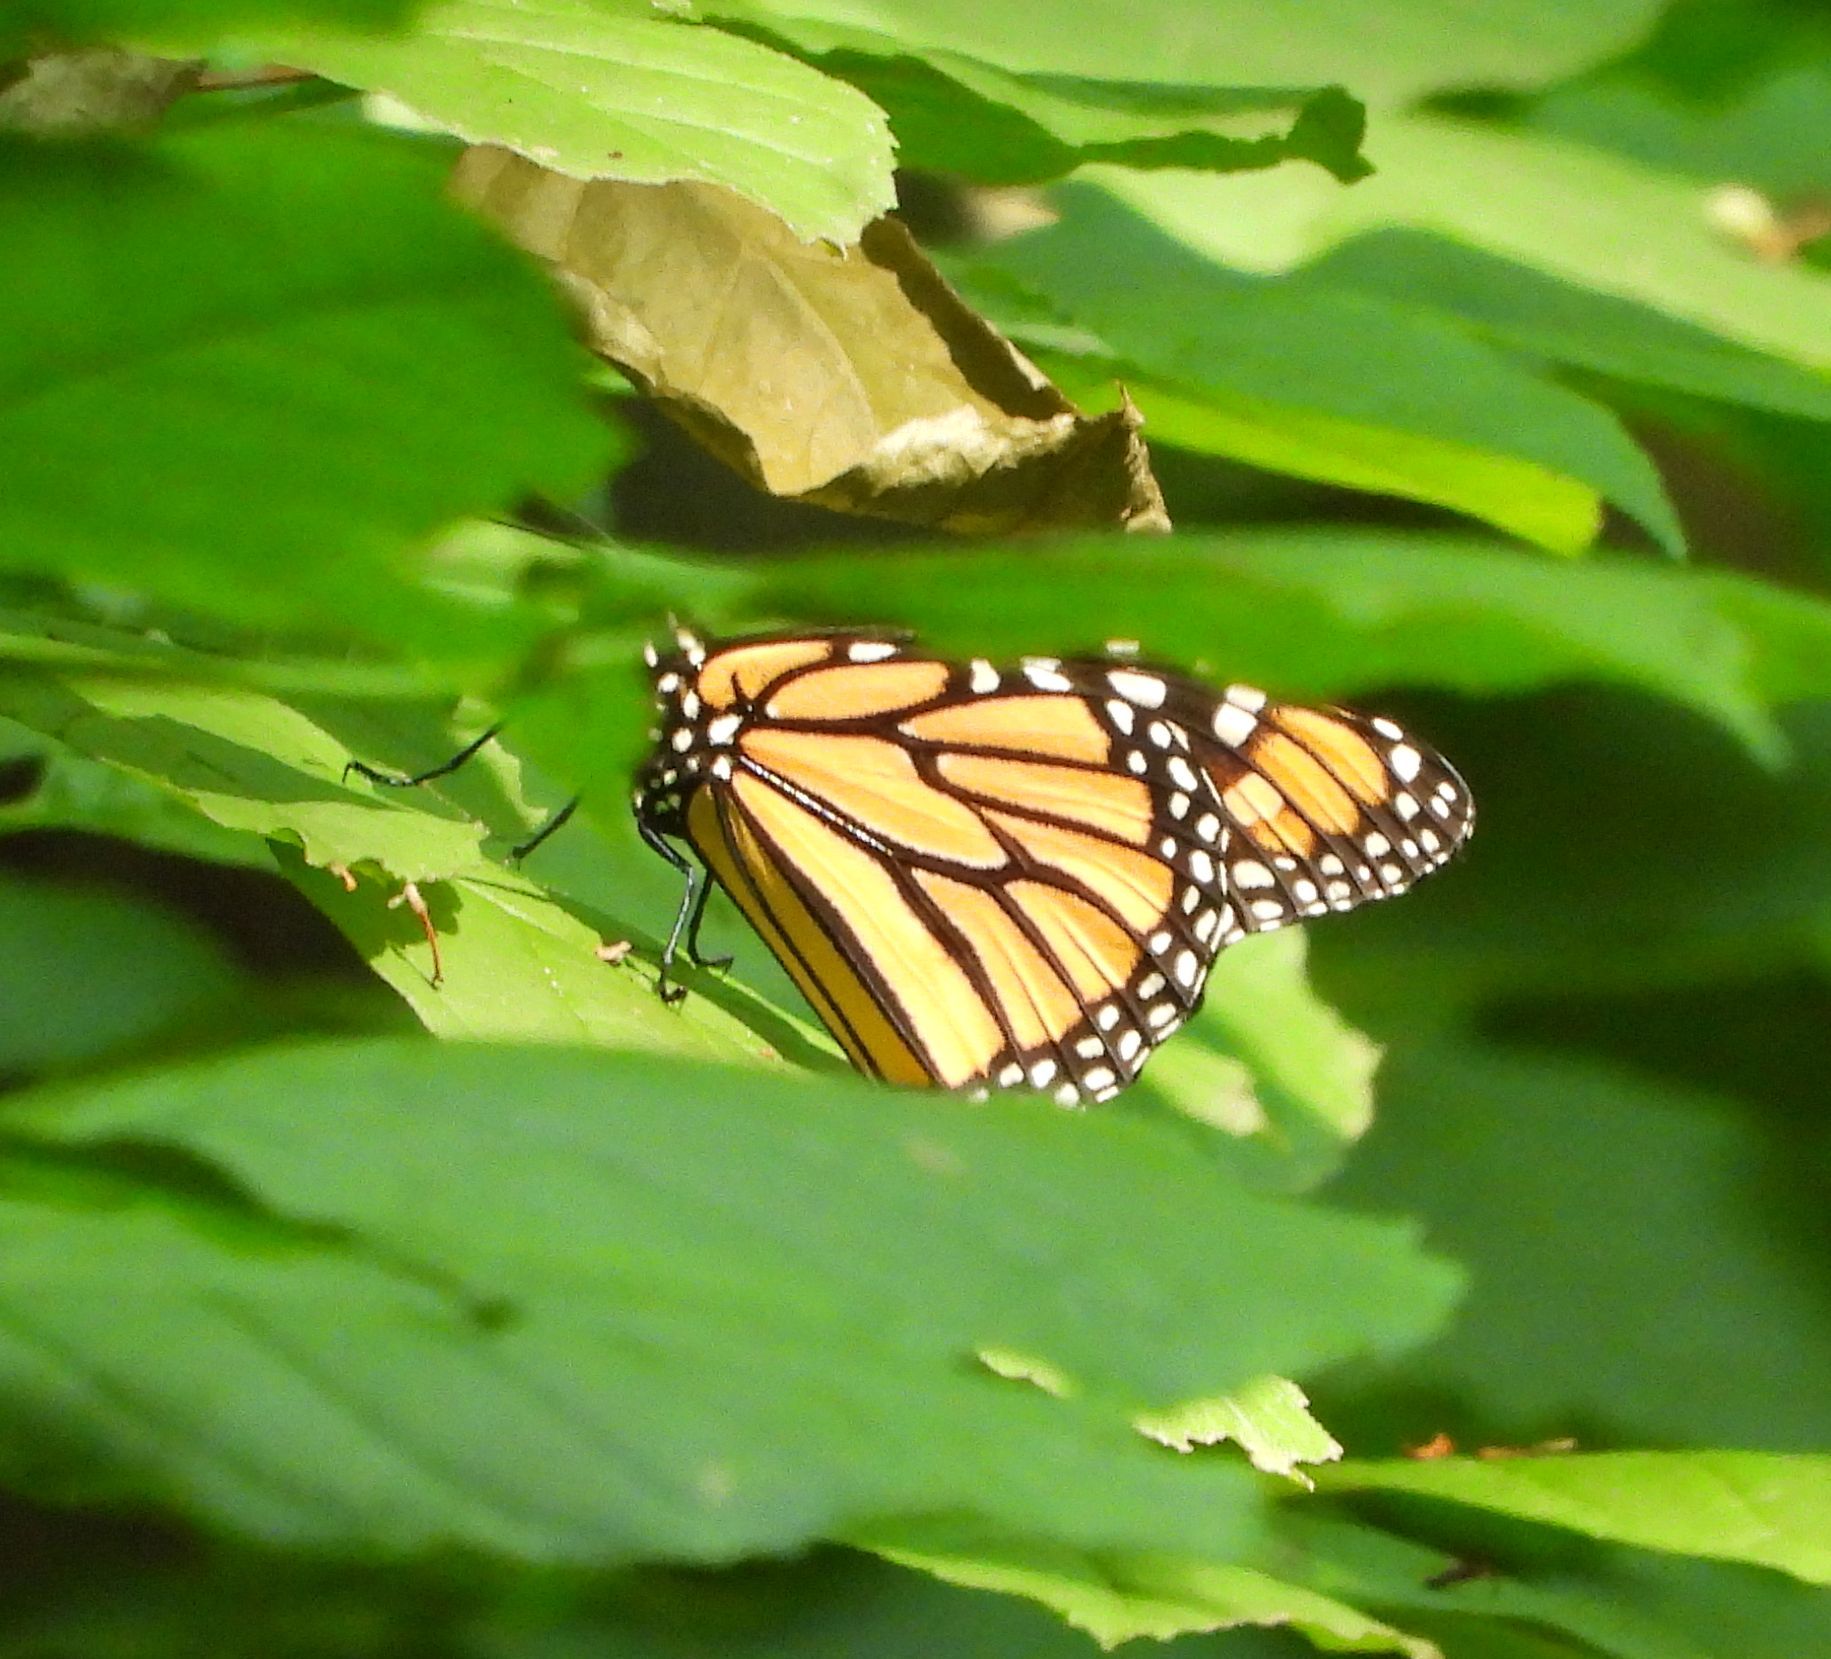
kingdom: Animalia
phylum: Arthropoda
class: Insecta
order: Lepidoptera
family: Nymphalidae
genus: Danaus
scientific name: Danaus plexippus
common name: Monarch
